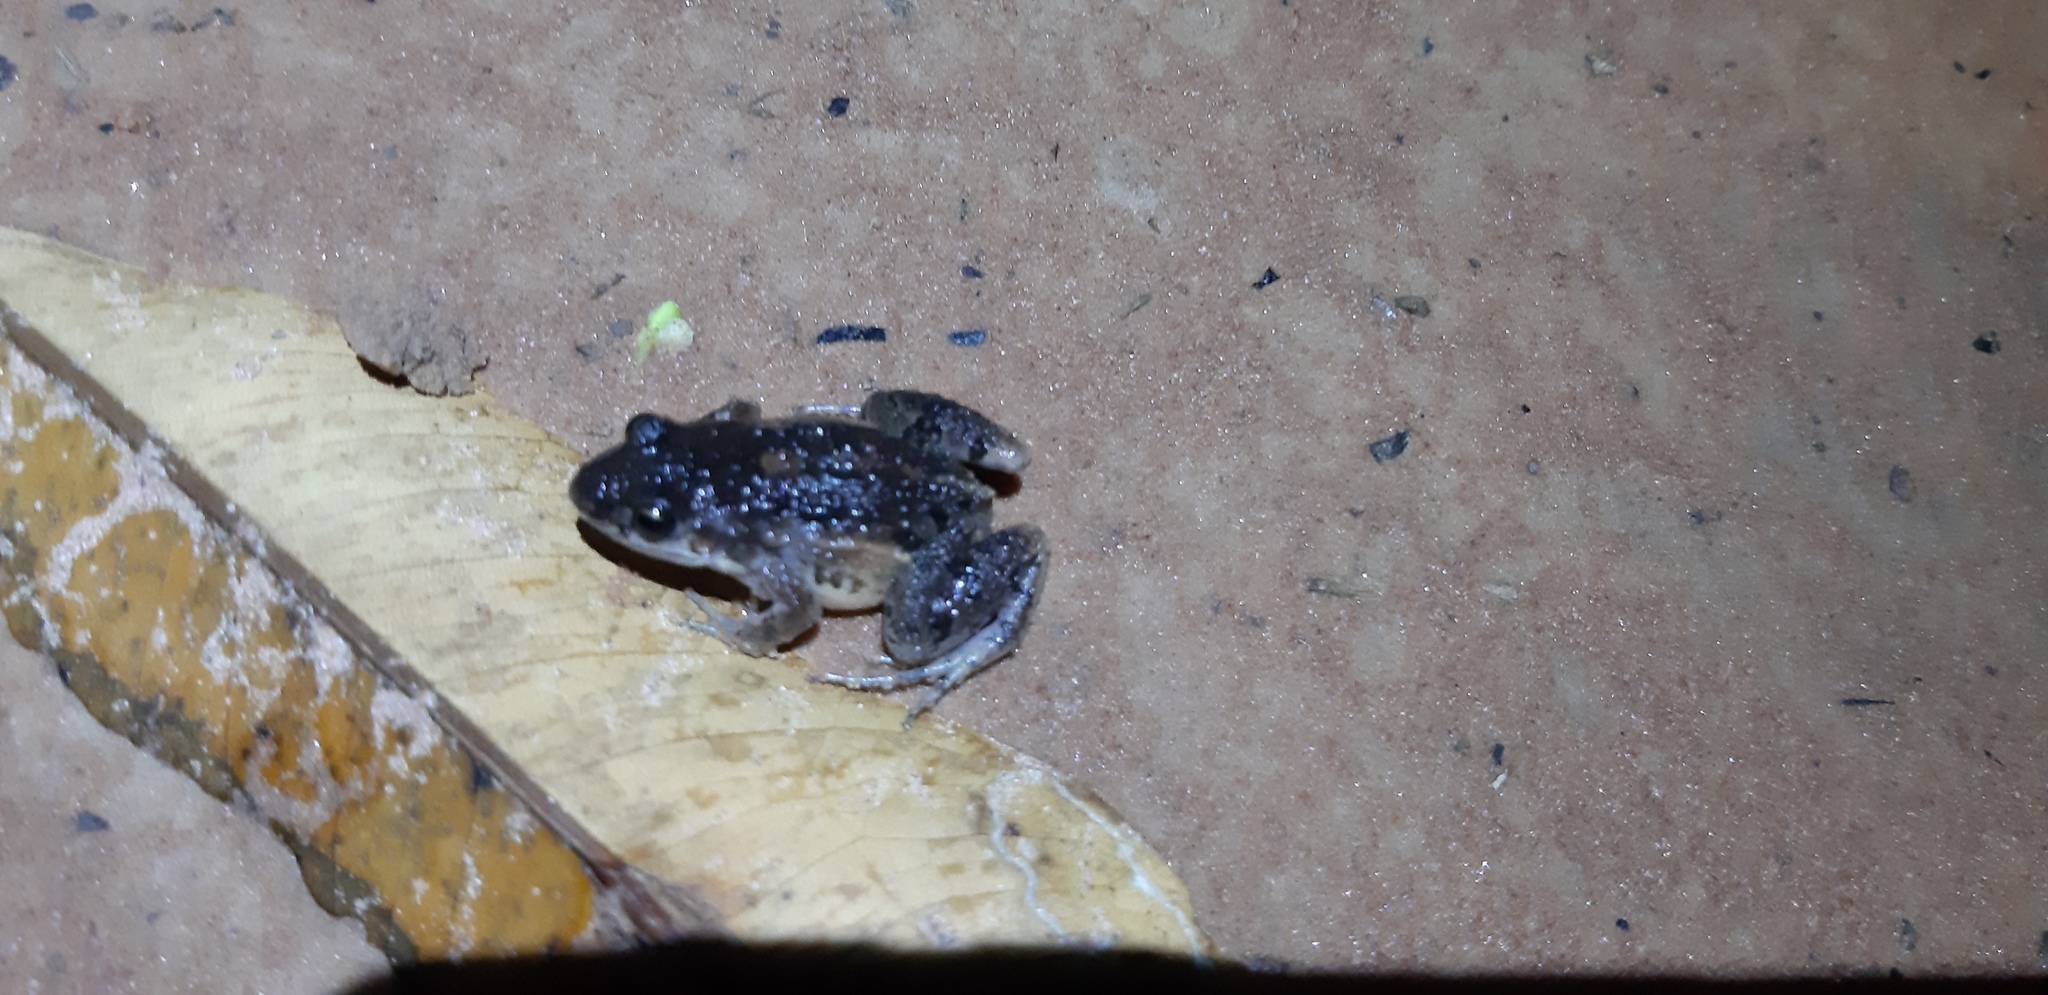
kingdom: Animalia
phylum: Chordata
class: Amphibia
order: Anura
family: Leptodactylidae
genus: Adenomera
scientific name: Adenomera chicomendesi
